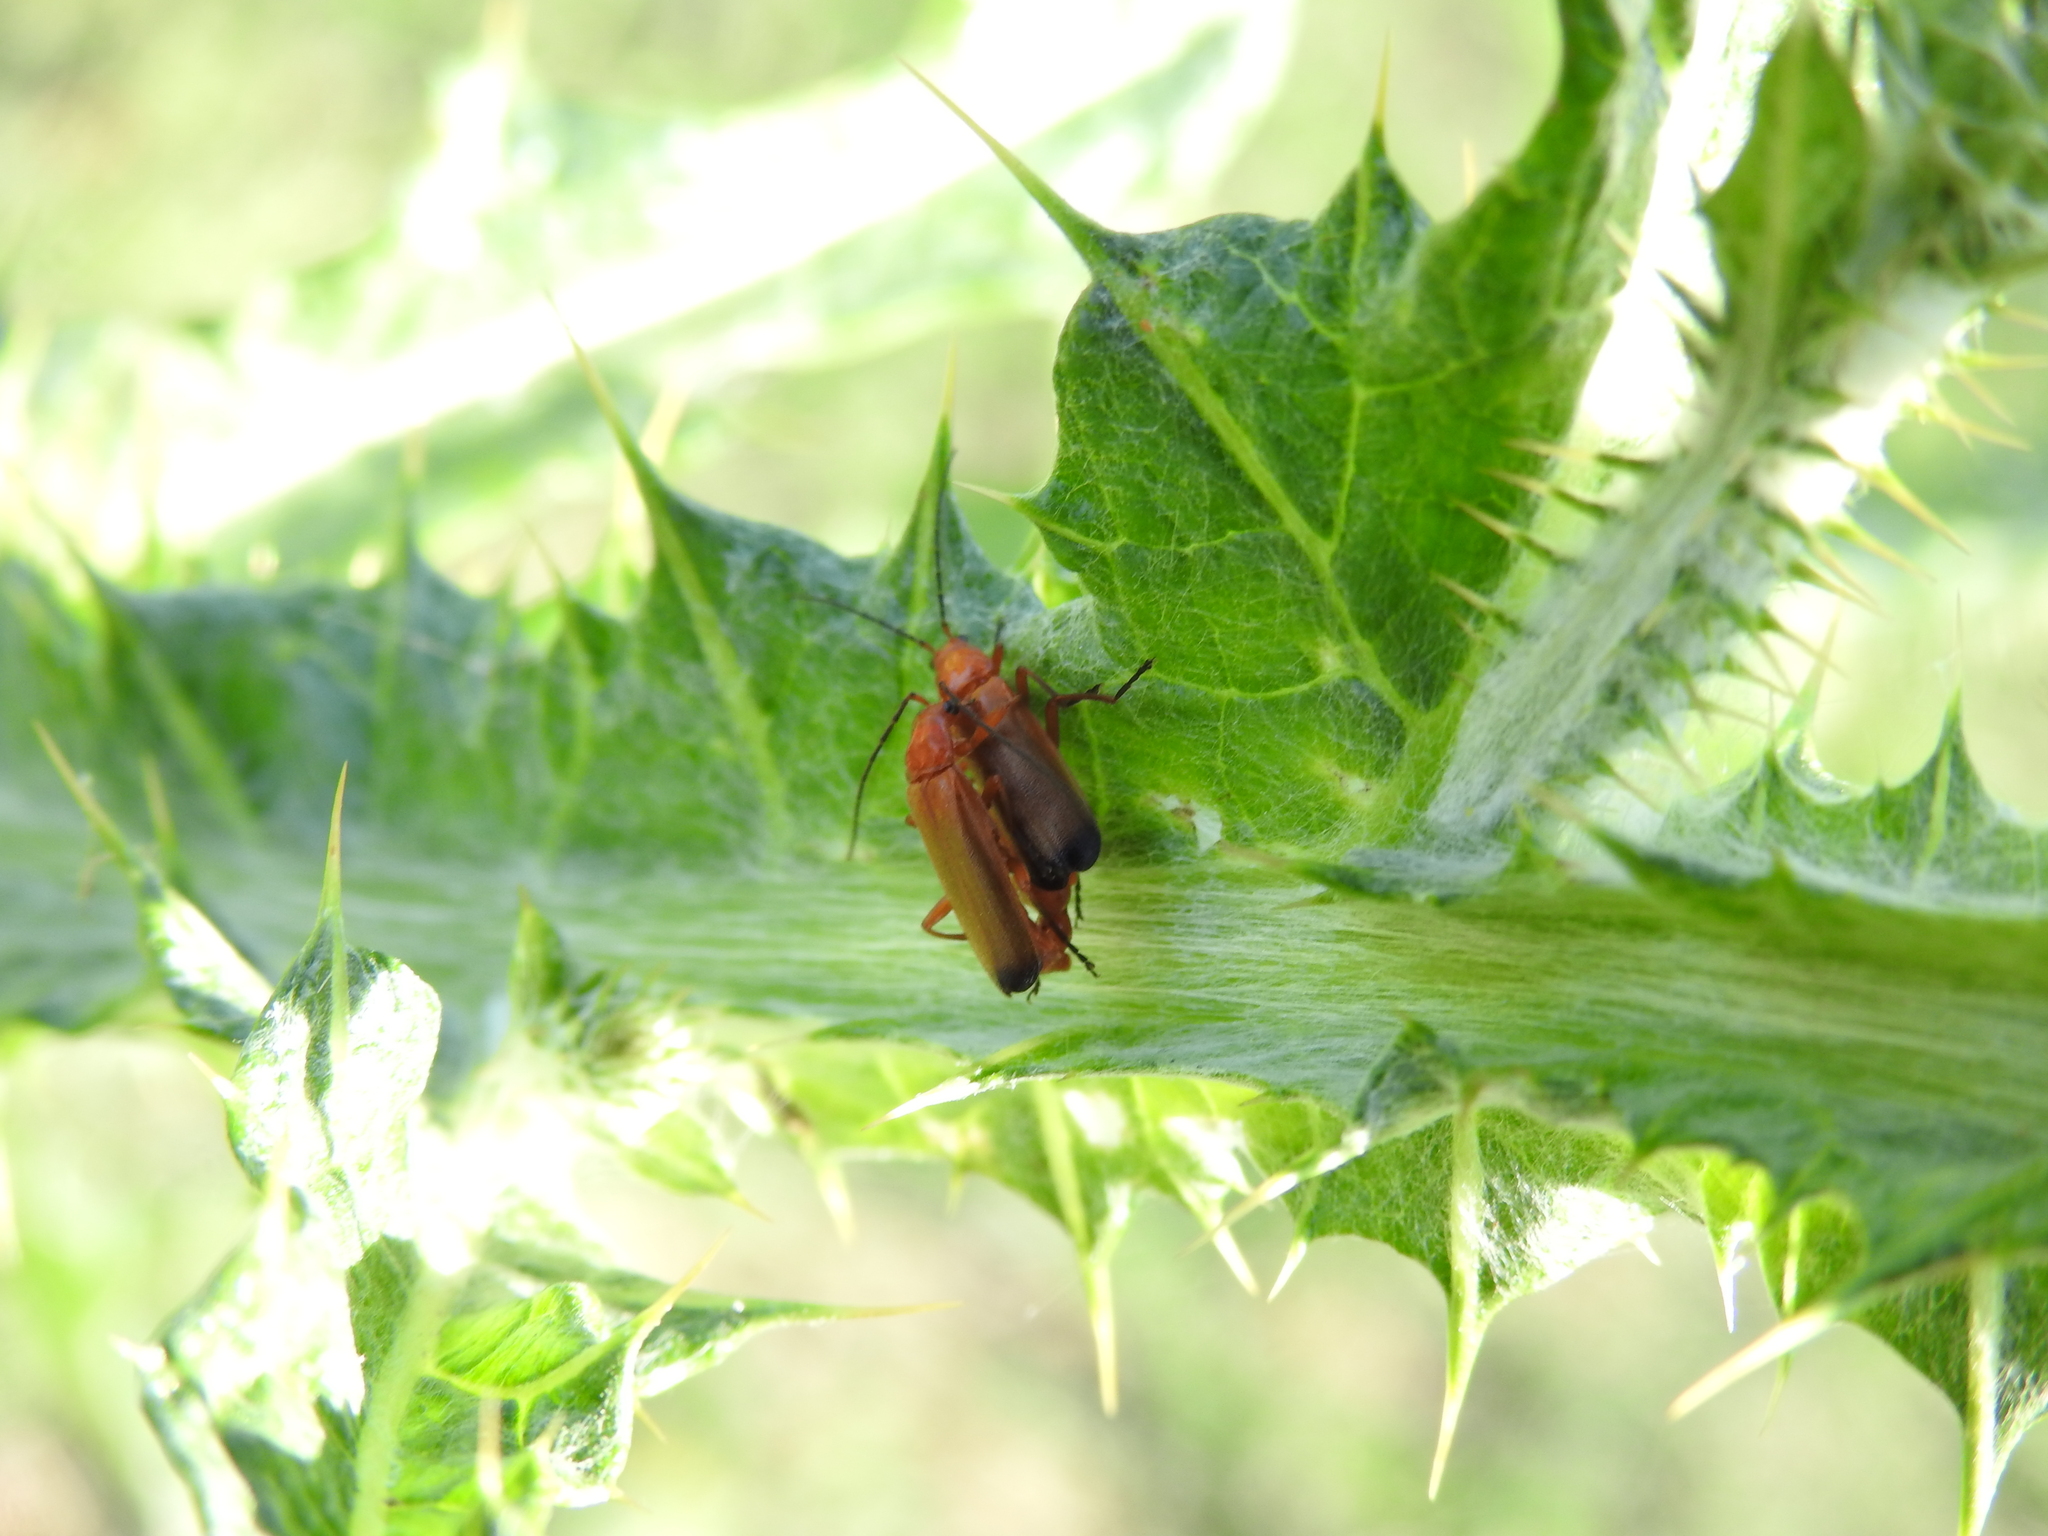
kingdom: Animalia
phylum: Arthropoda
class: Insecta
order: Coleoptera
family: Cantharidae
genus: Rhagonycha
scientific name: Rhagonycha fulva
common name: Common red soldier beetle
